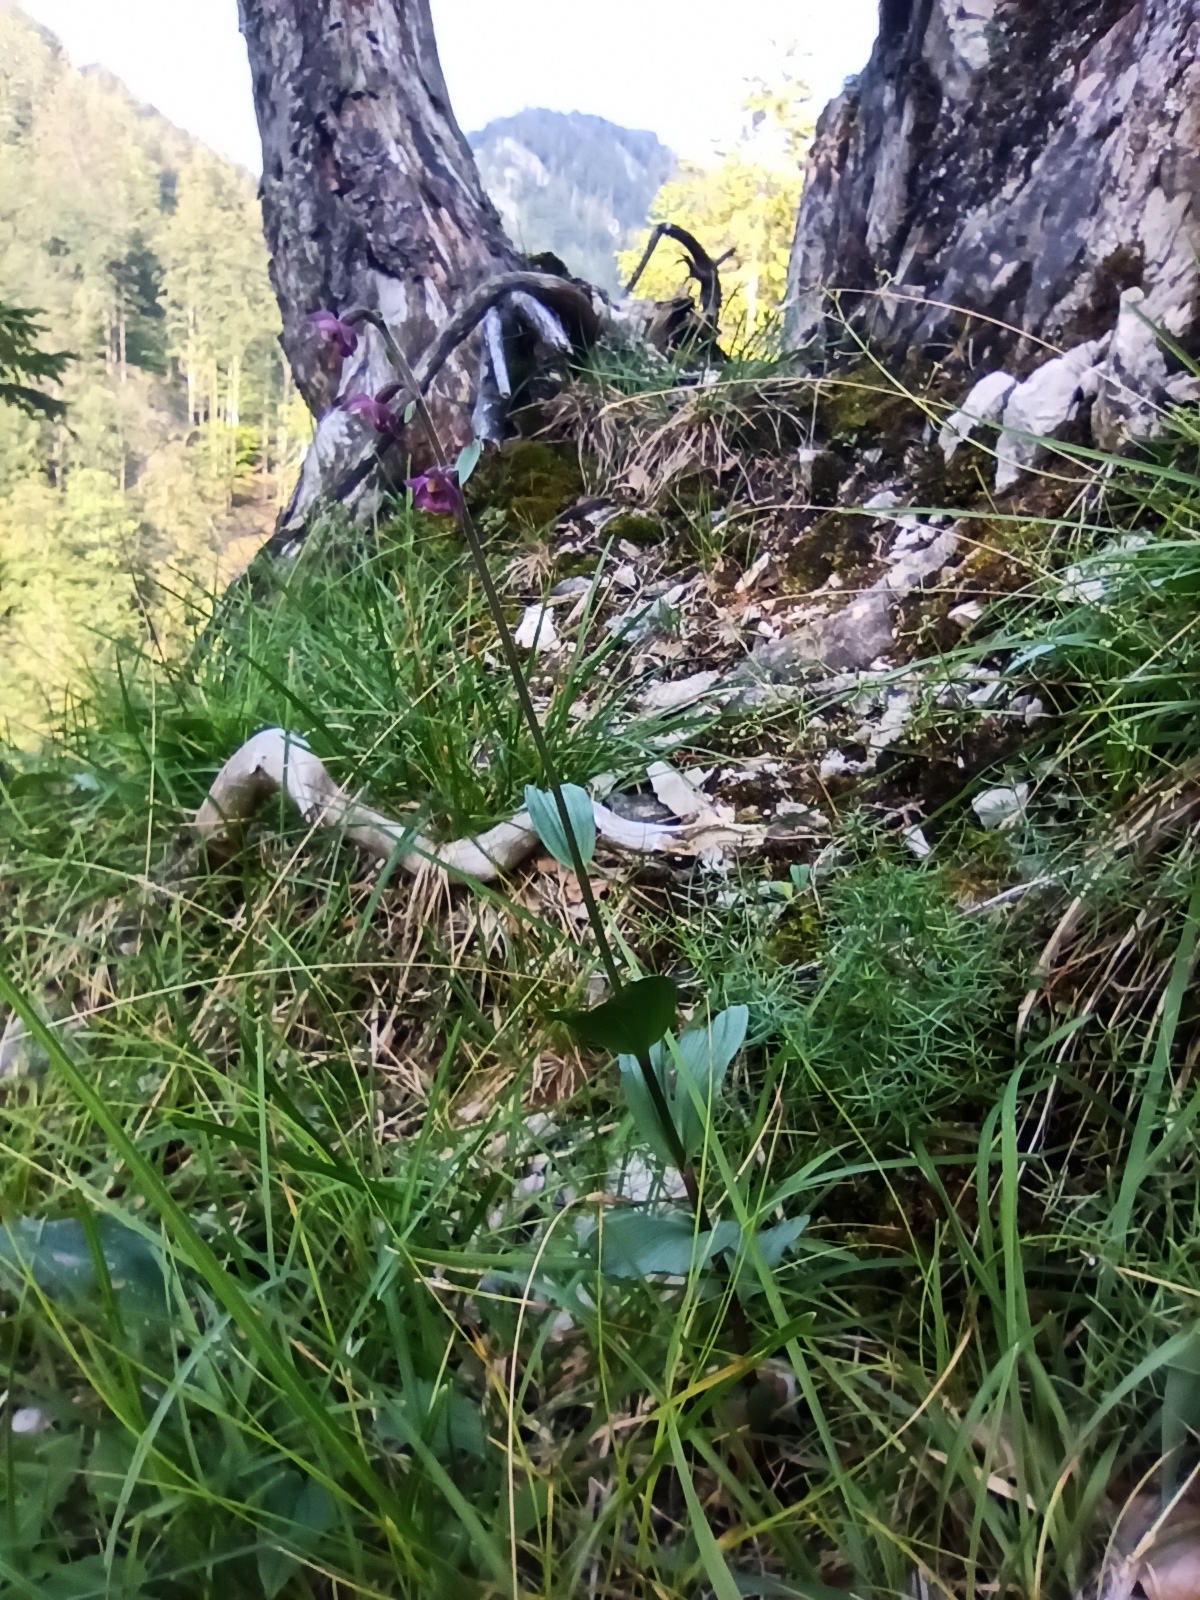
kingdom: Plantae
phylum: Tracheophyta
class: Liliopsida
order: Asparagales
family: Orchidaceae
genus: Epipactis
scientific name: Epipactis atrorubens
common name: Dark-red helleborine
